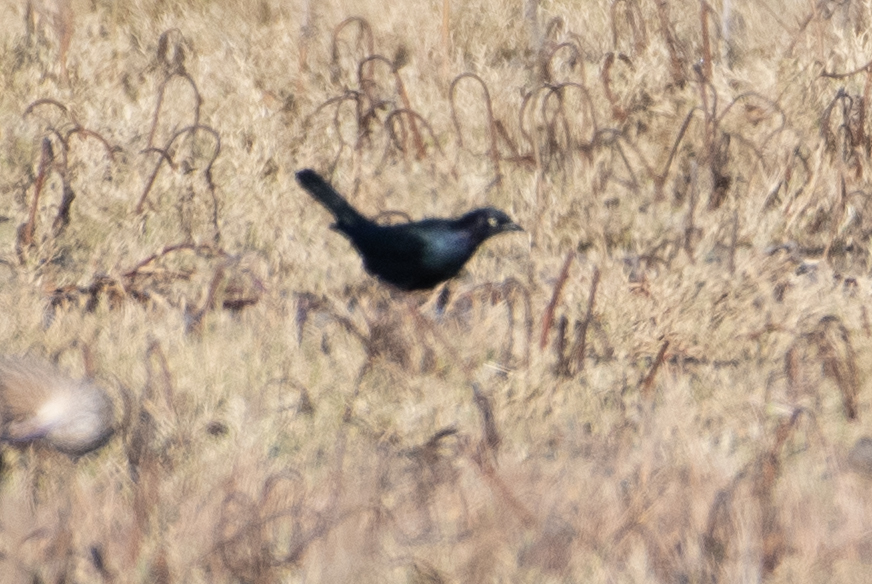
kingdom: Animalia
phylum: Chordata
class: Aves
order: Passeriformes
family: Icteridae
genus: Euphagus
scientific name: Euphagus cyanocephalus
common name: Brewer's blackbird
